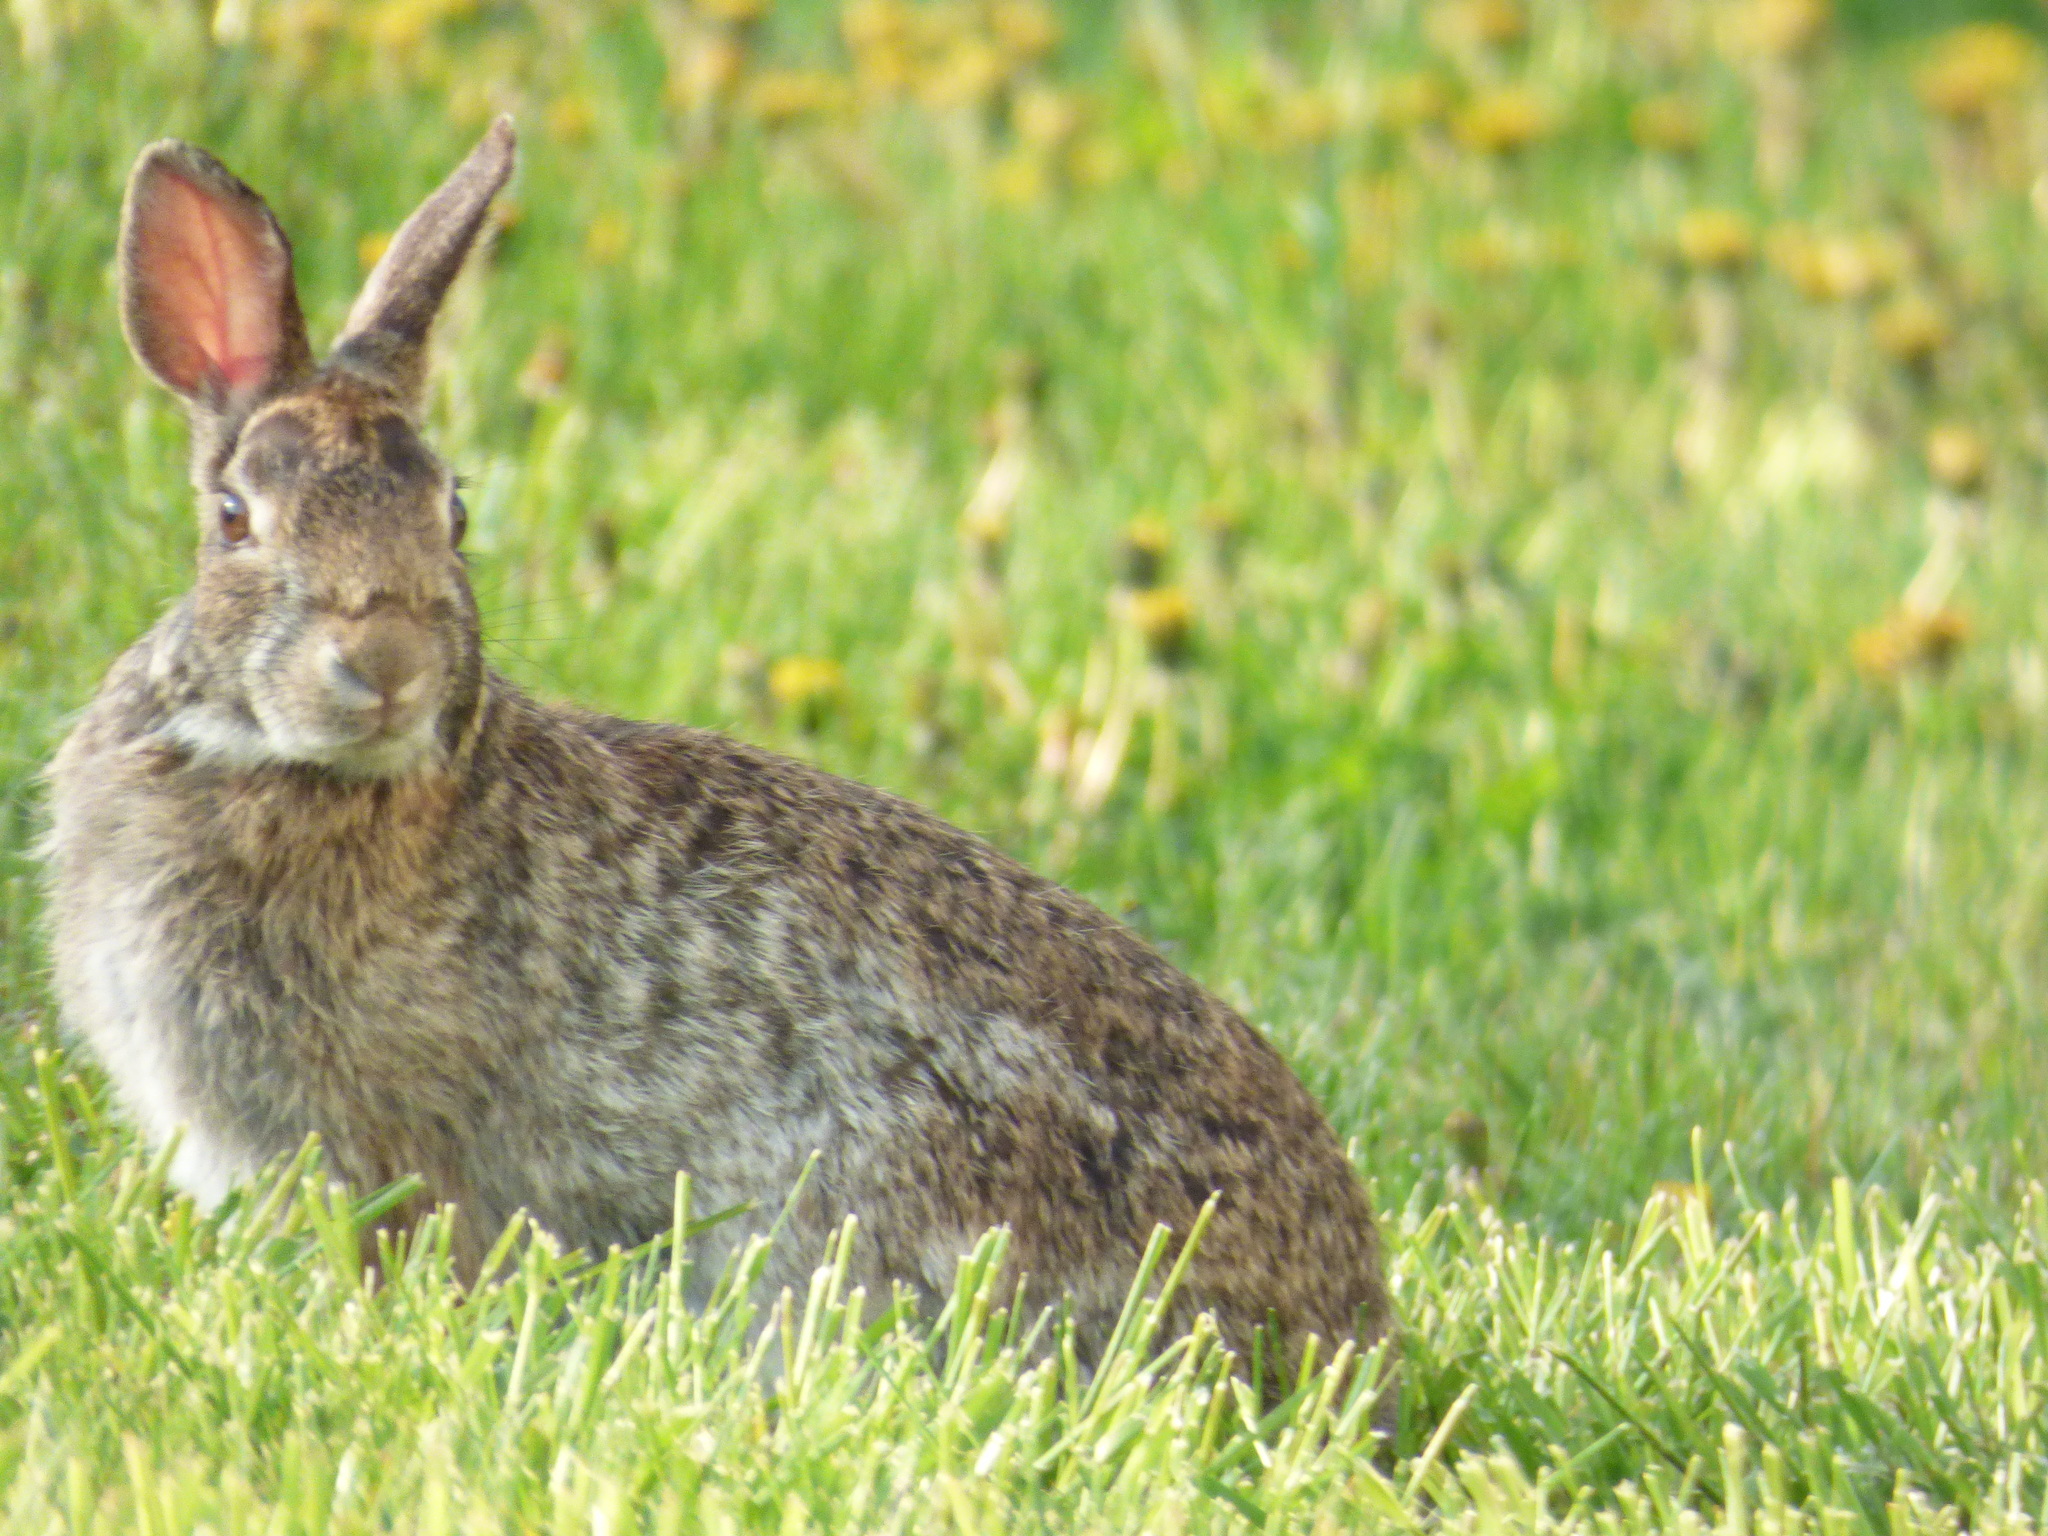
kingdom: Animalia
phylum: Chordata
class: Mammalia
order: Lagomorpha
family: Leporidae
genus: Sylvilagus
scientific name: Sylvilagus floridanus
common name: Eastern cottontail
